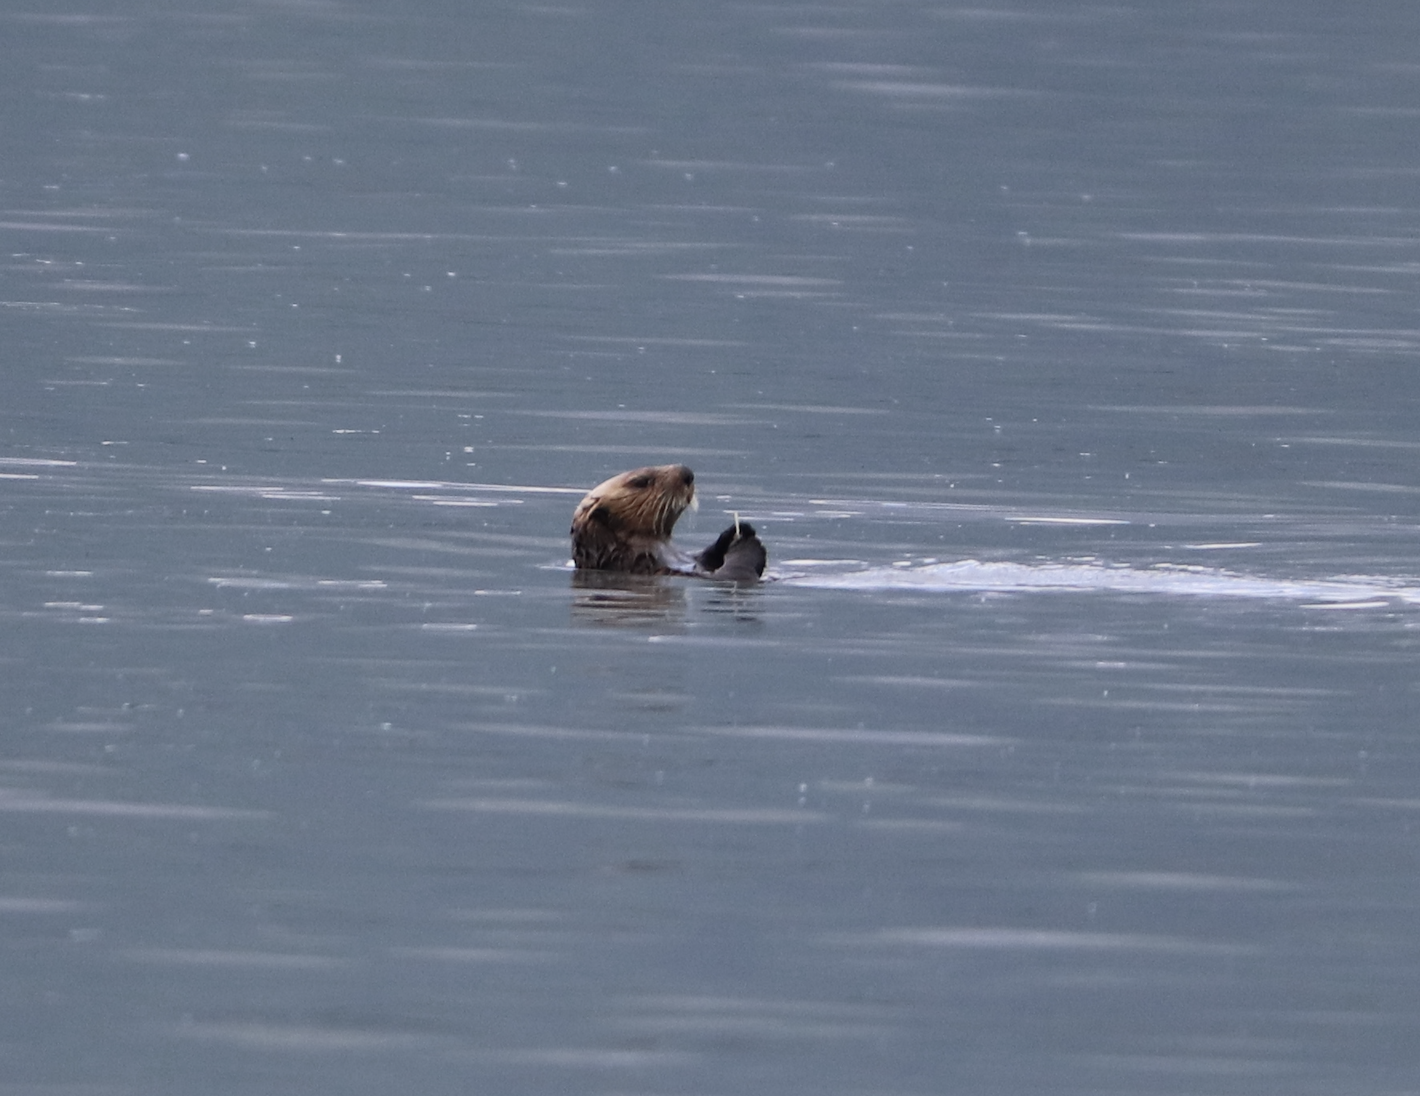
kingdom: Animalia
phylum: Chordata
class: Mammalia
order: Carnivora
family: Mustelidae
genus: Enhydra
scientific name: Enhydra lutris
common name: Sea otter
